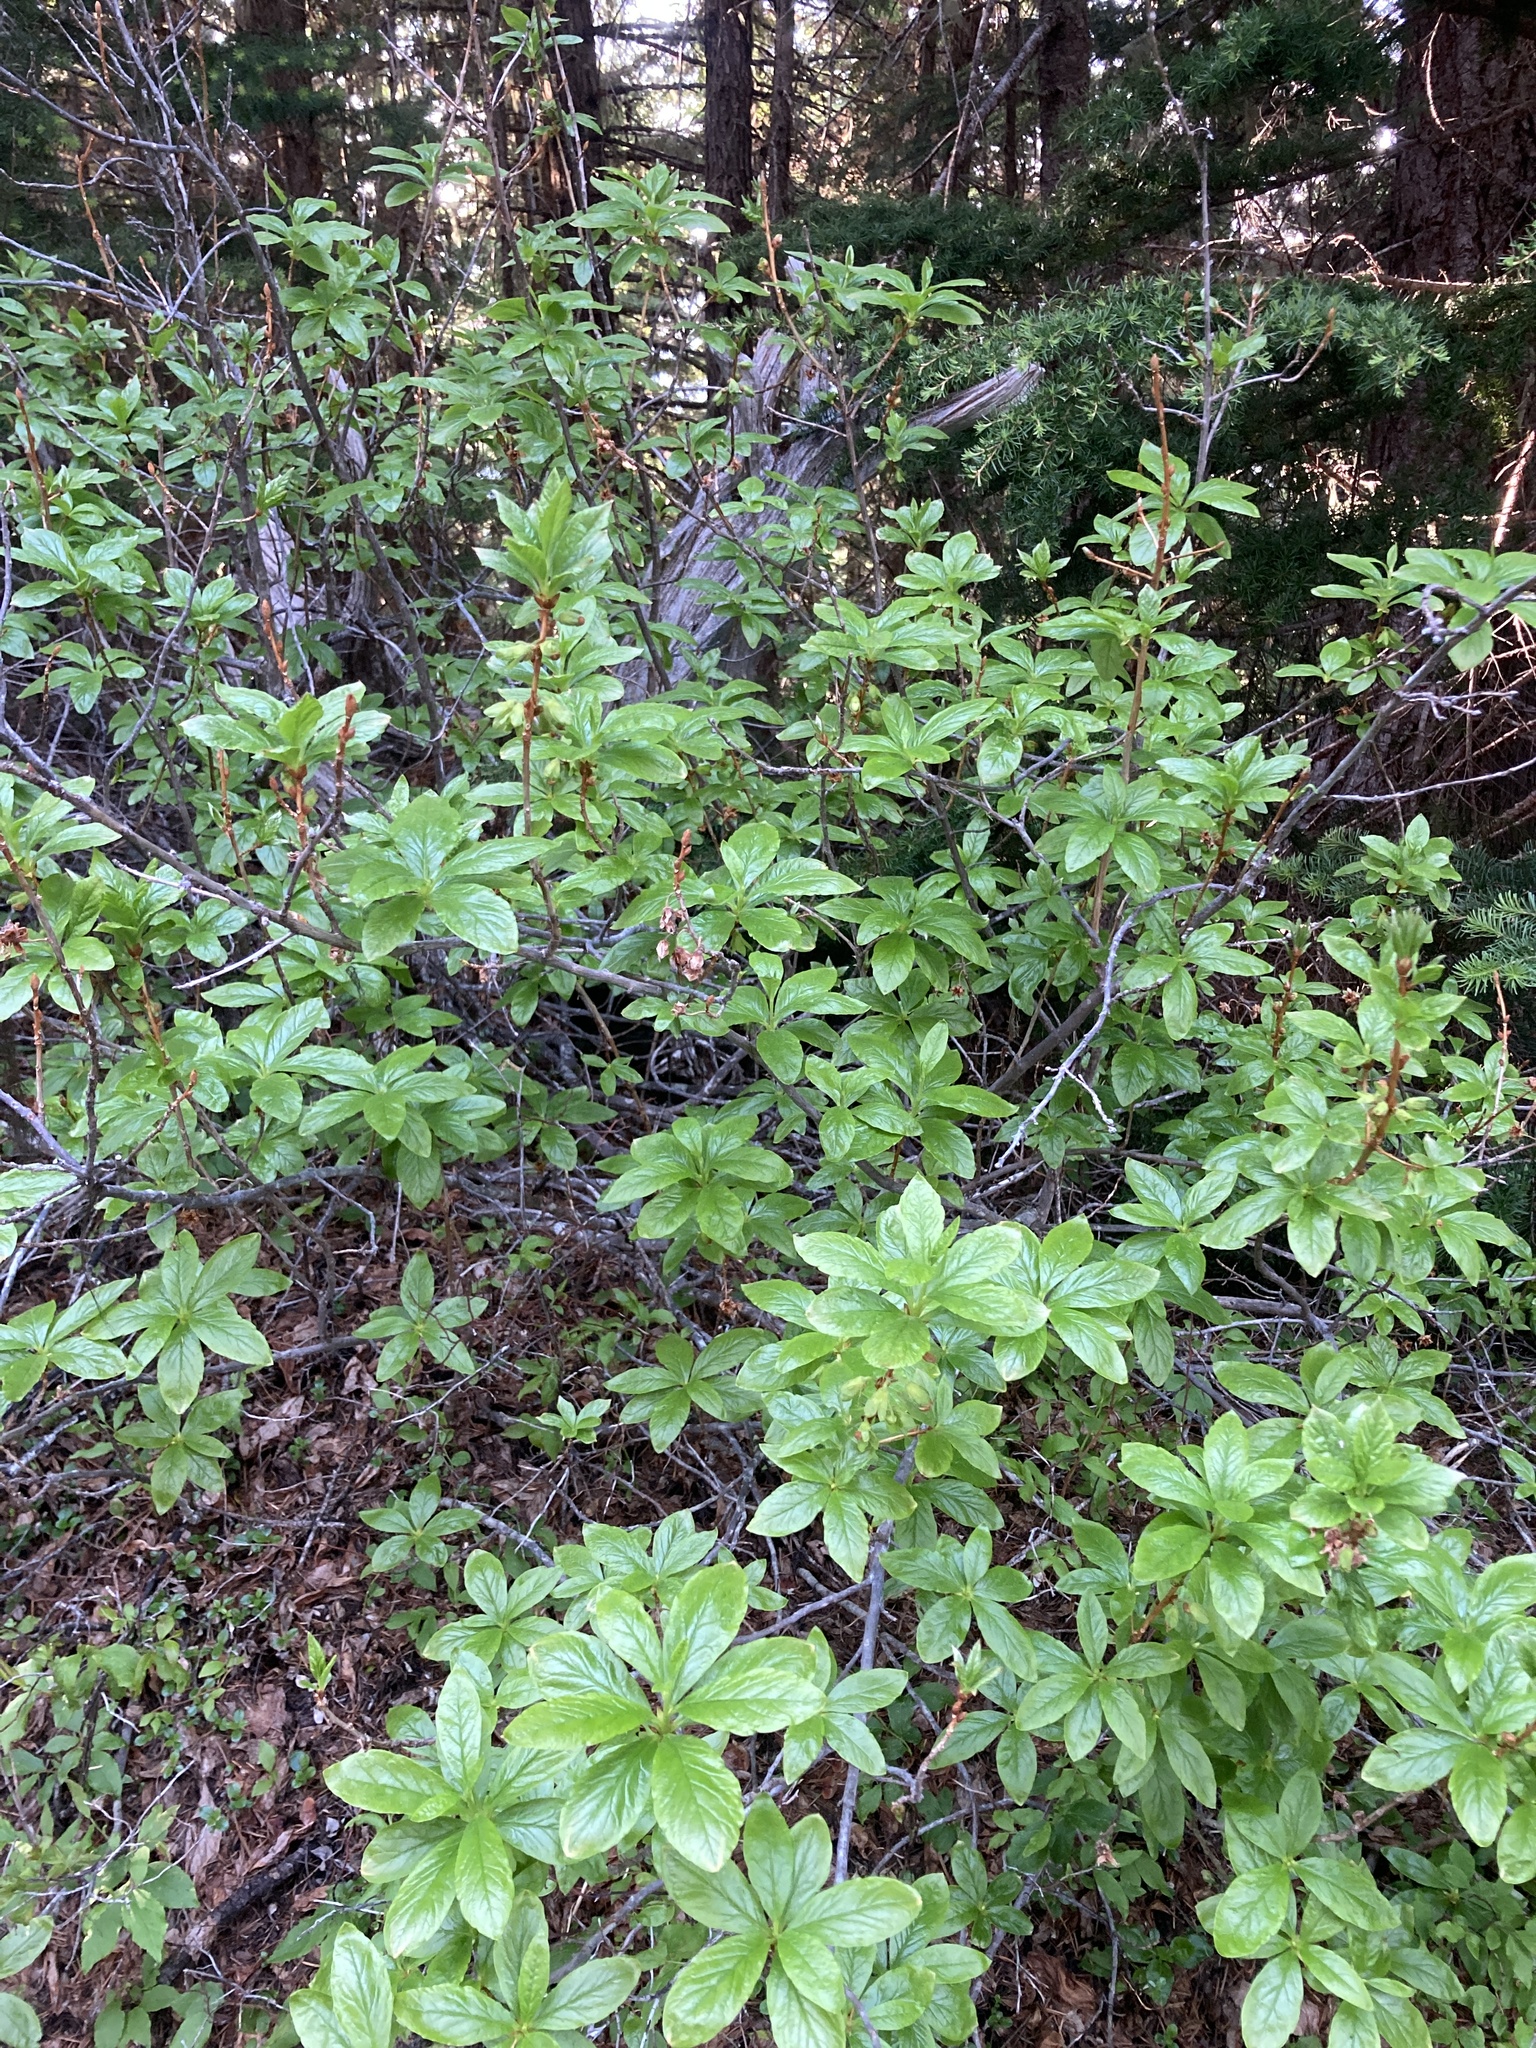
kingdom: Plantae
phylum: Tracheophyta
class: Magnoliopsida
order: Ericales
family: Ericaceae
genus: Rhododendron
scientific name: Rhododendron albiflorum
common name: White rhododendron
